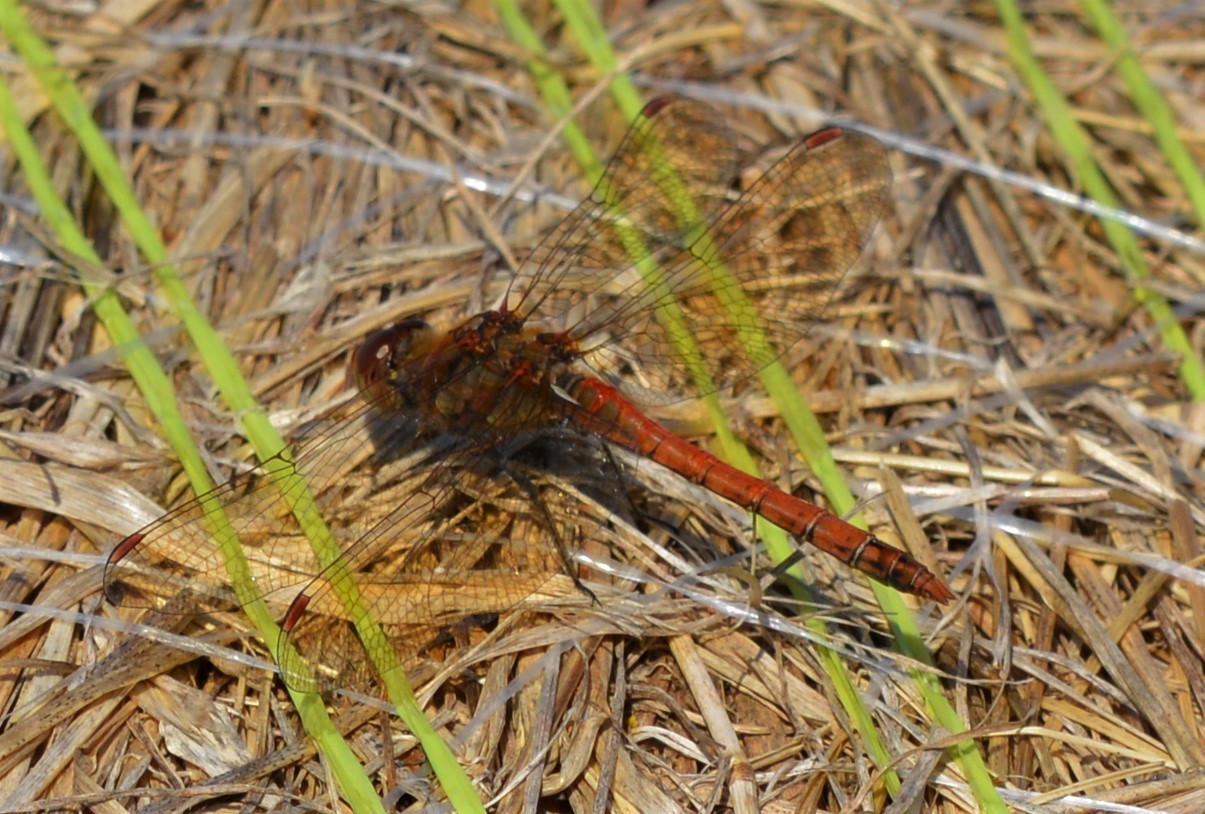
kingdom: Animalia
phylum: Arthropoda
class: Insecta
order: Odonata
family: Libellulidae
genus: Sympetrum
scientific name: Sympetrum striolatum
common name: Common darter
